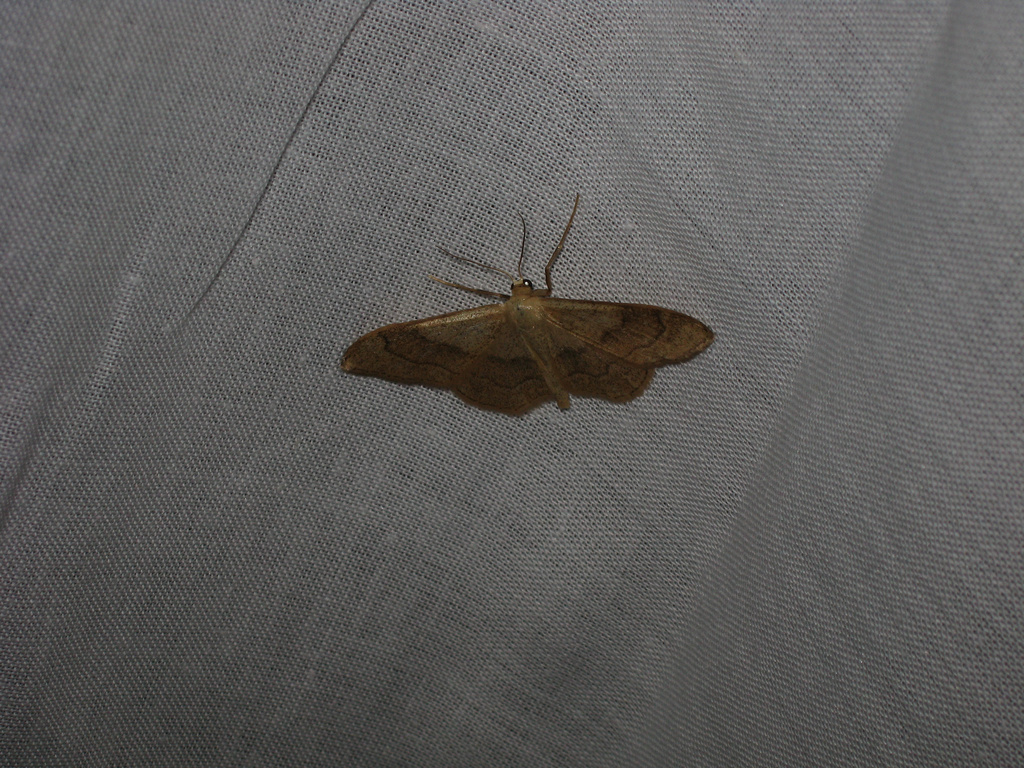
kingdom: Animalia
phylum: Arthropoda
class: Insecta
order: Lepidoptera
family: Geometridae
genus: Idaea
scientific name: Idaea aversata
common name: Riband wave
